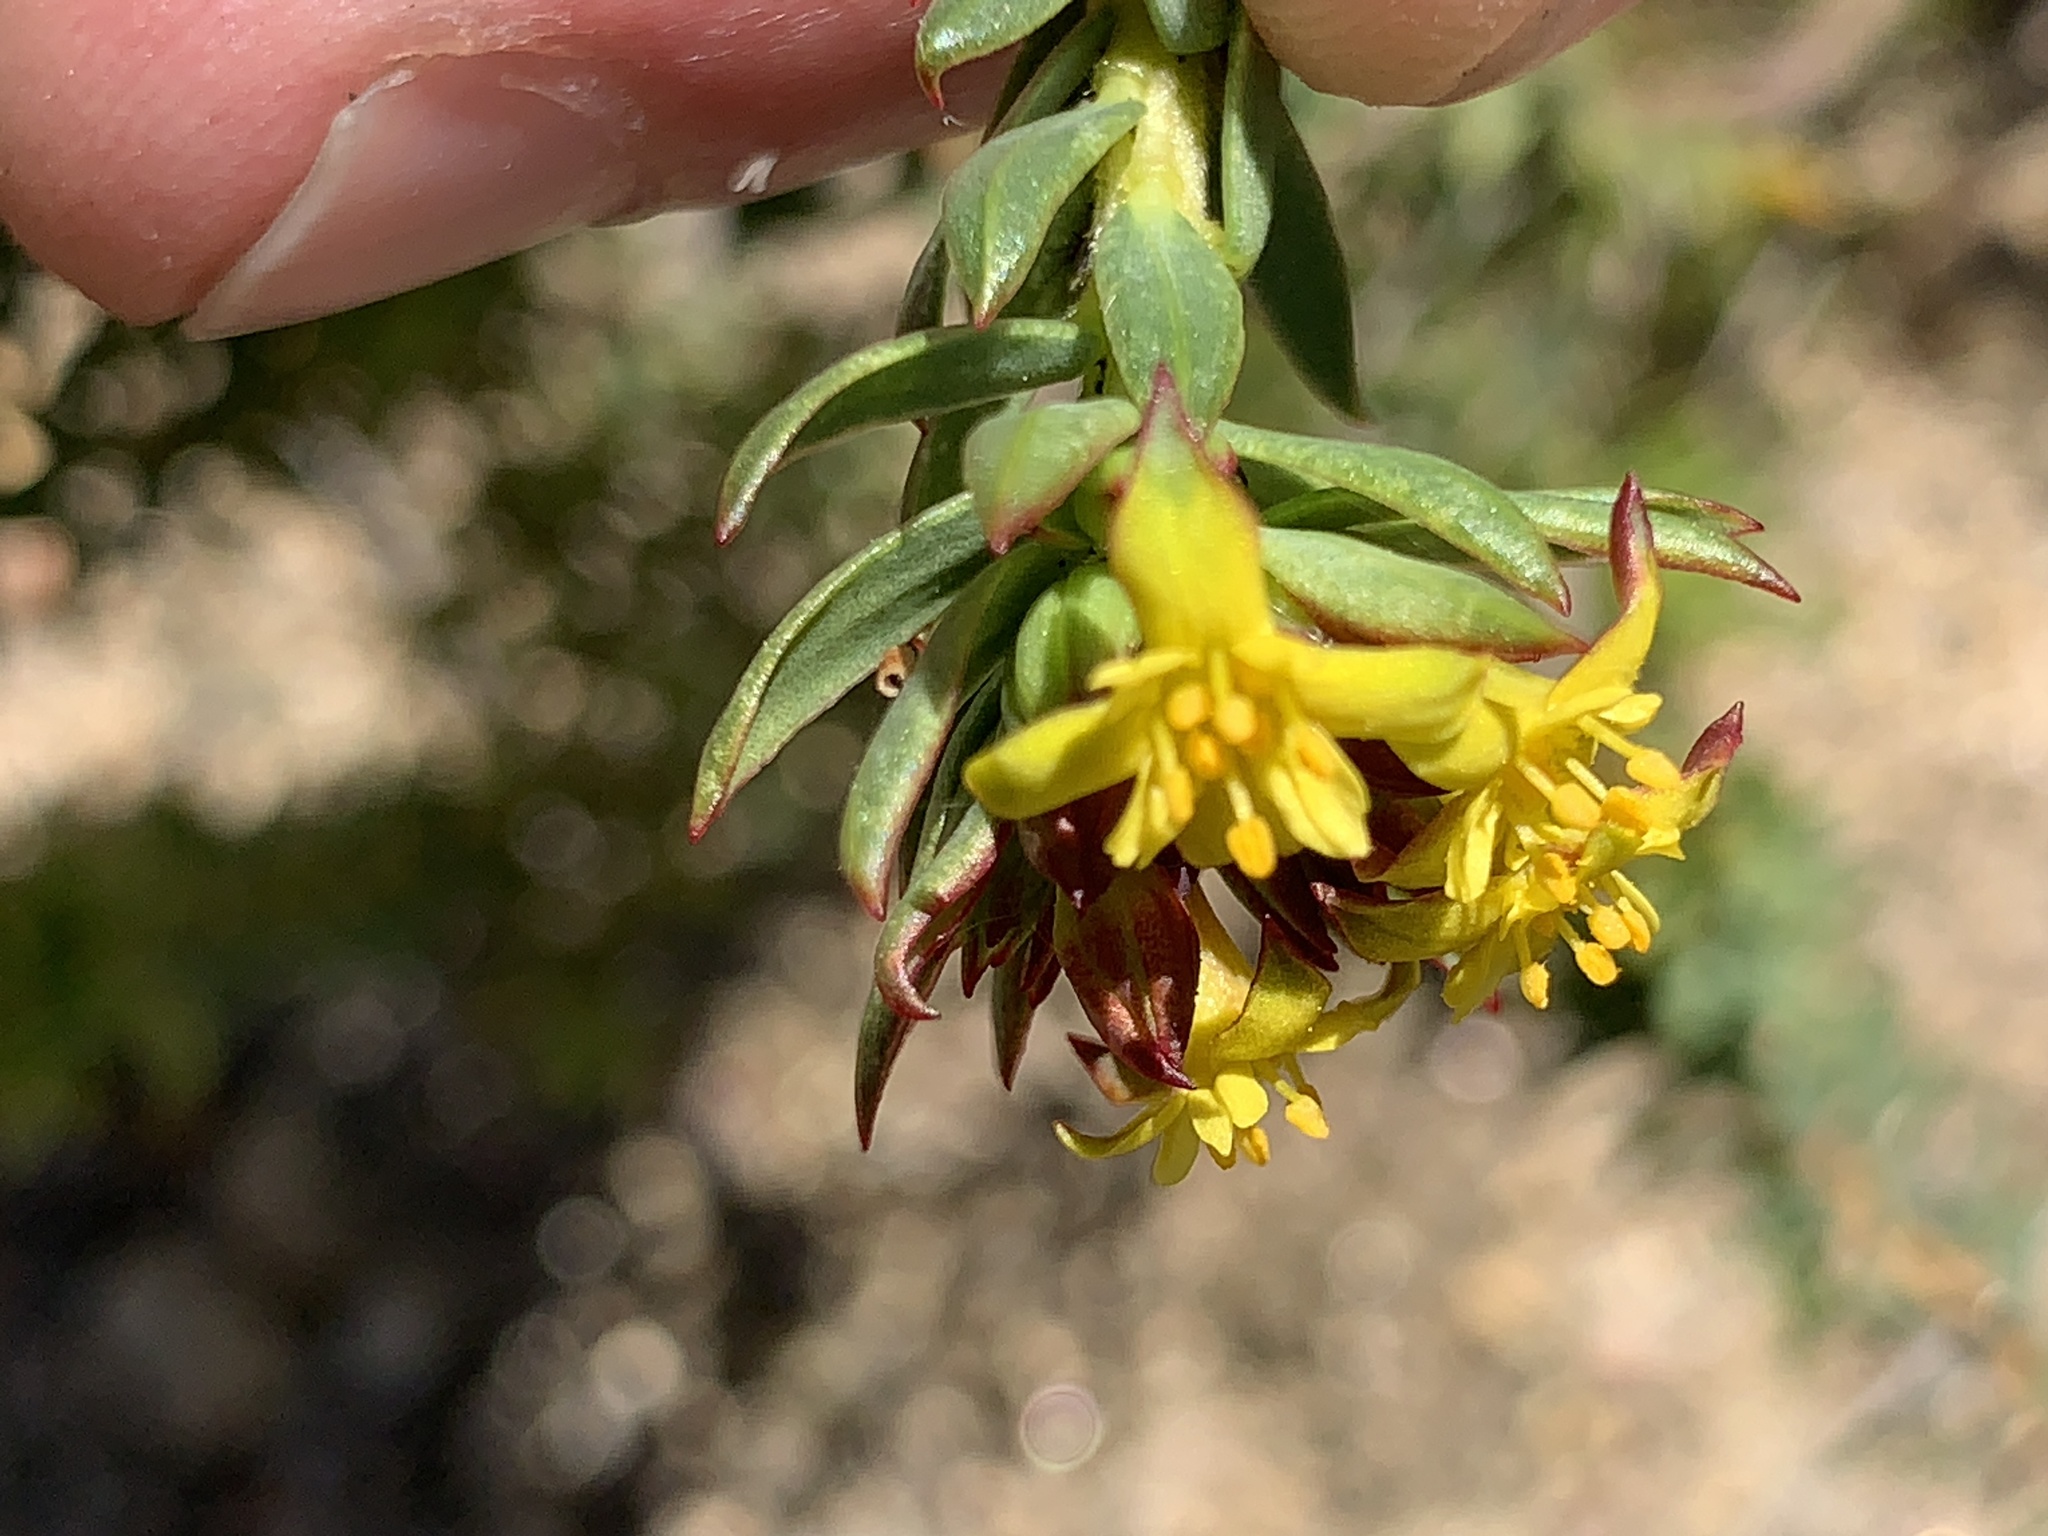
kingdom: Plantae
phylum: Tracheophyta
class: Magnoliopsida
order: Malvales
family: Thymelaeaceae
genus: Gnidia
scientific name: Gnidia juniperifolia
